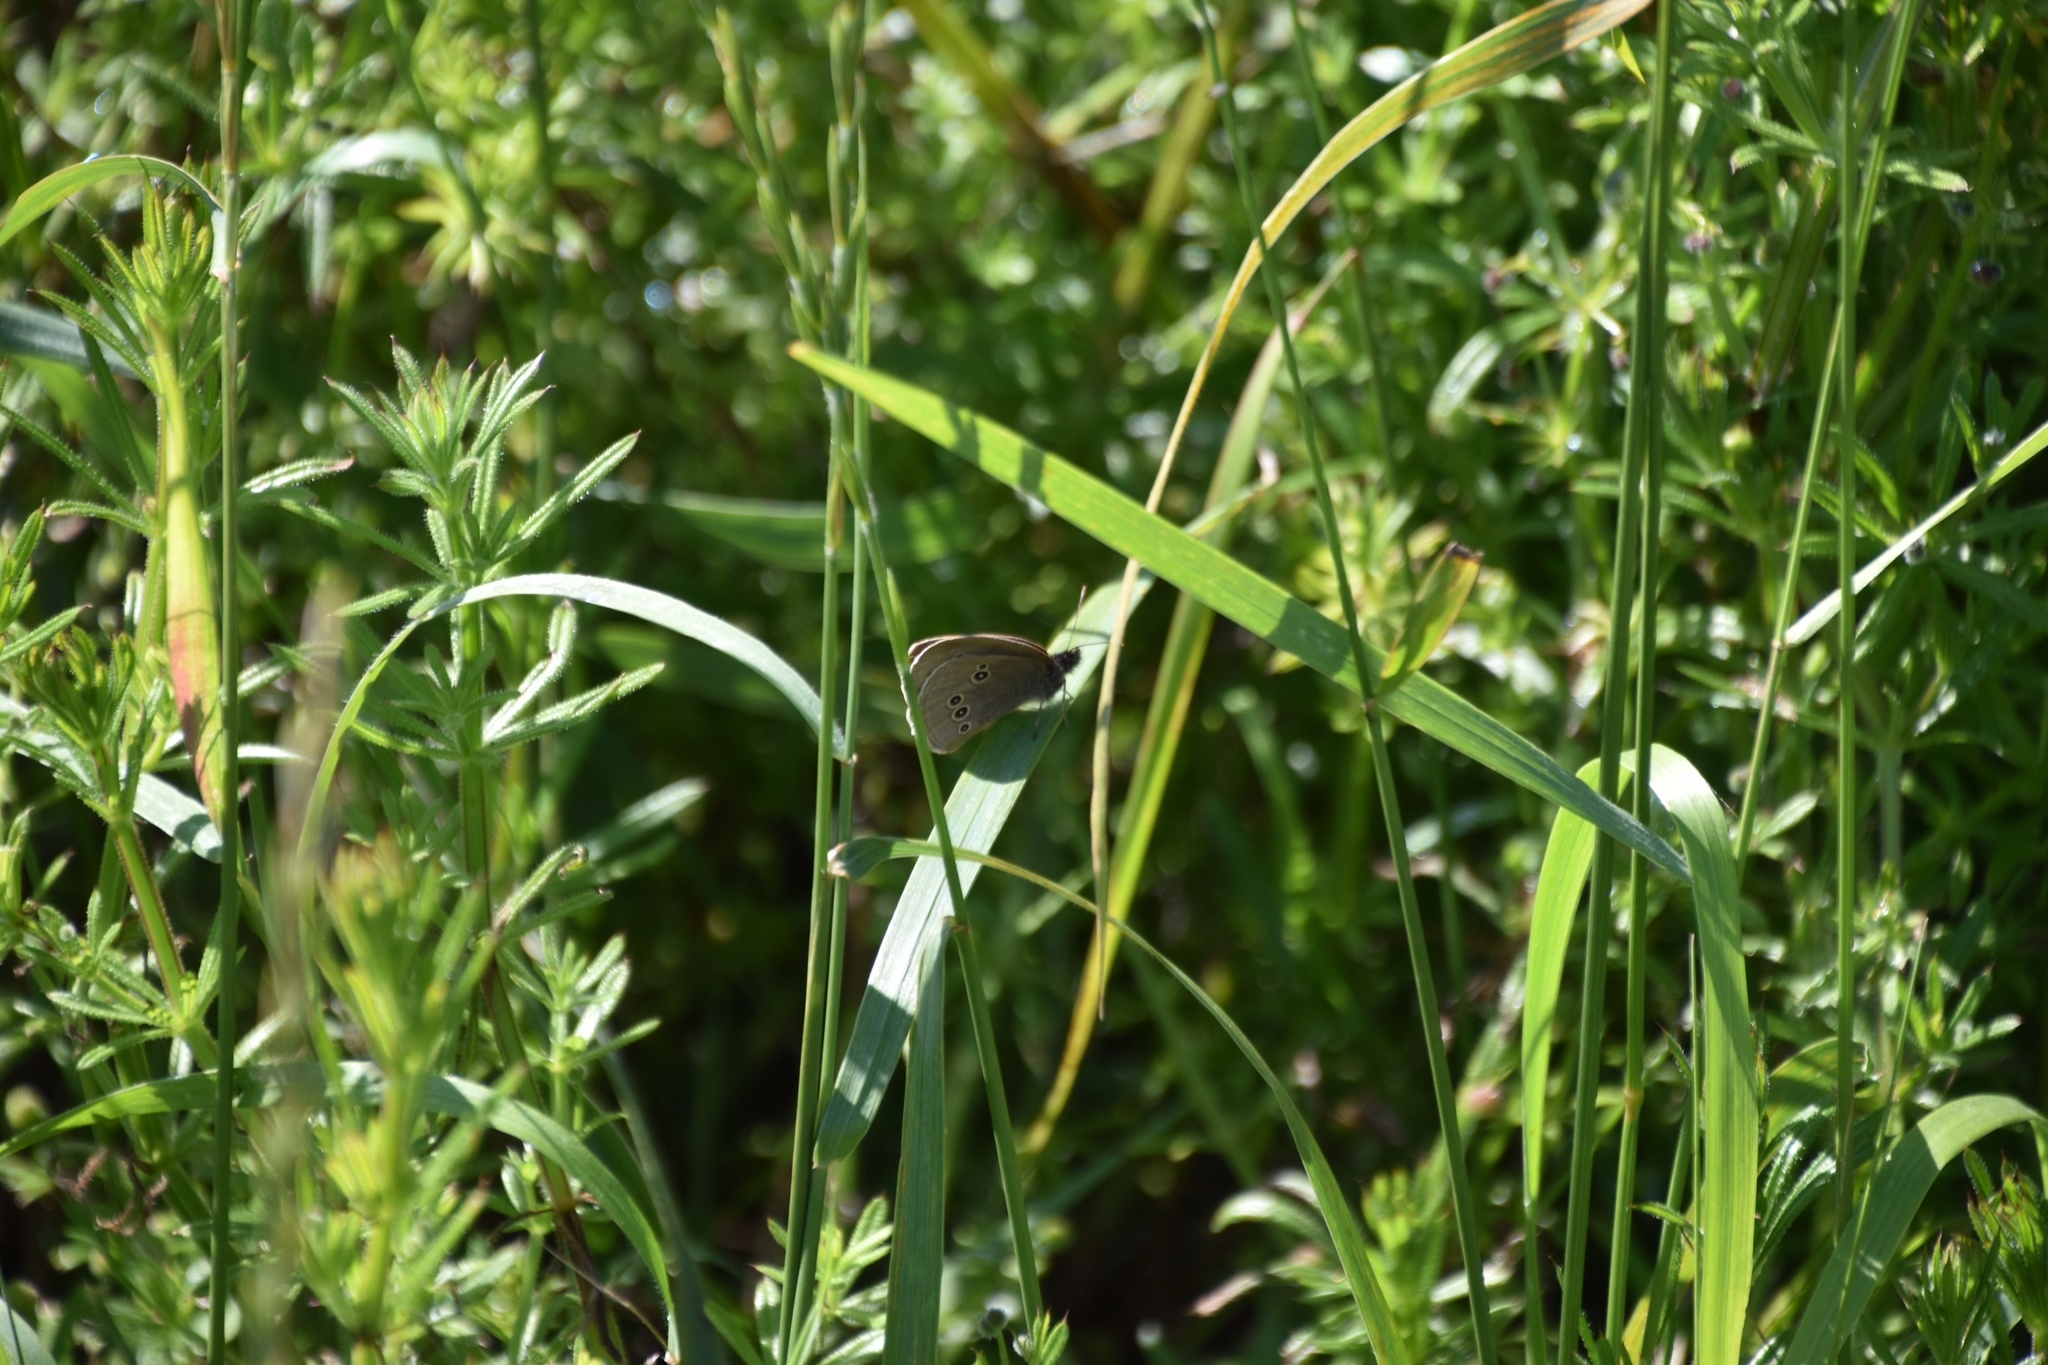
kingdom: Animalia
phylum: Arthropoda
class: Insecta
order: Lepidoptera
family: Nymphalidae
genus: Aphantopus
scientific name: Aphantopus hyperantus
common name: Ringlet
